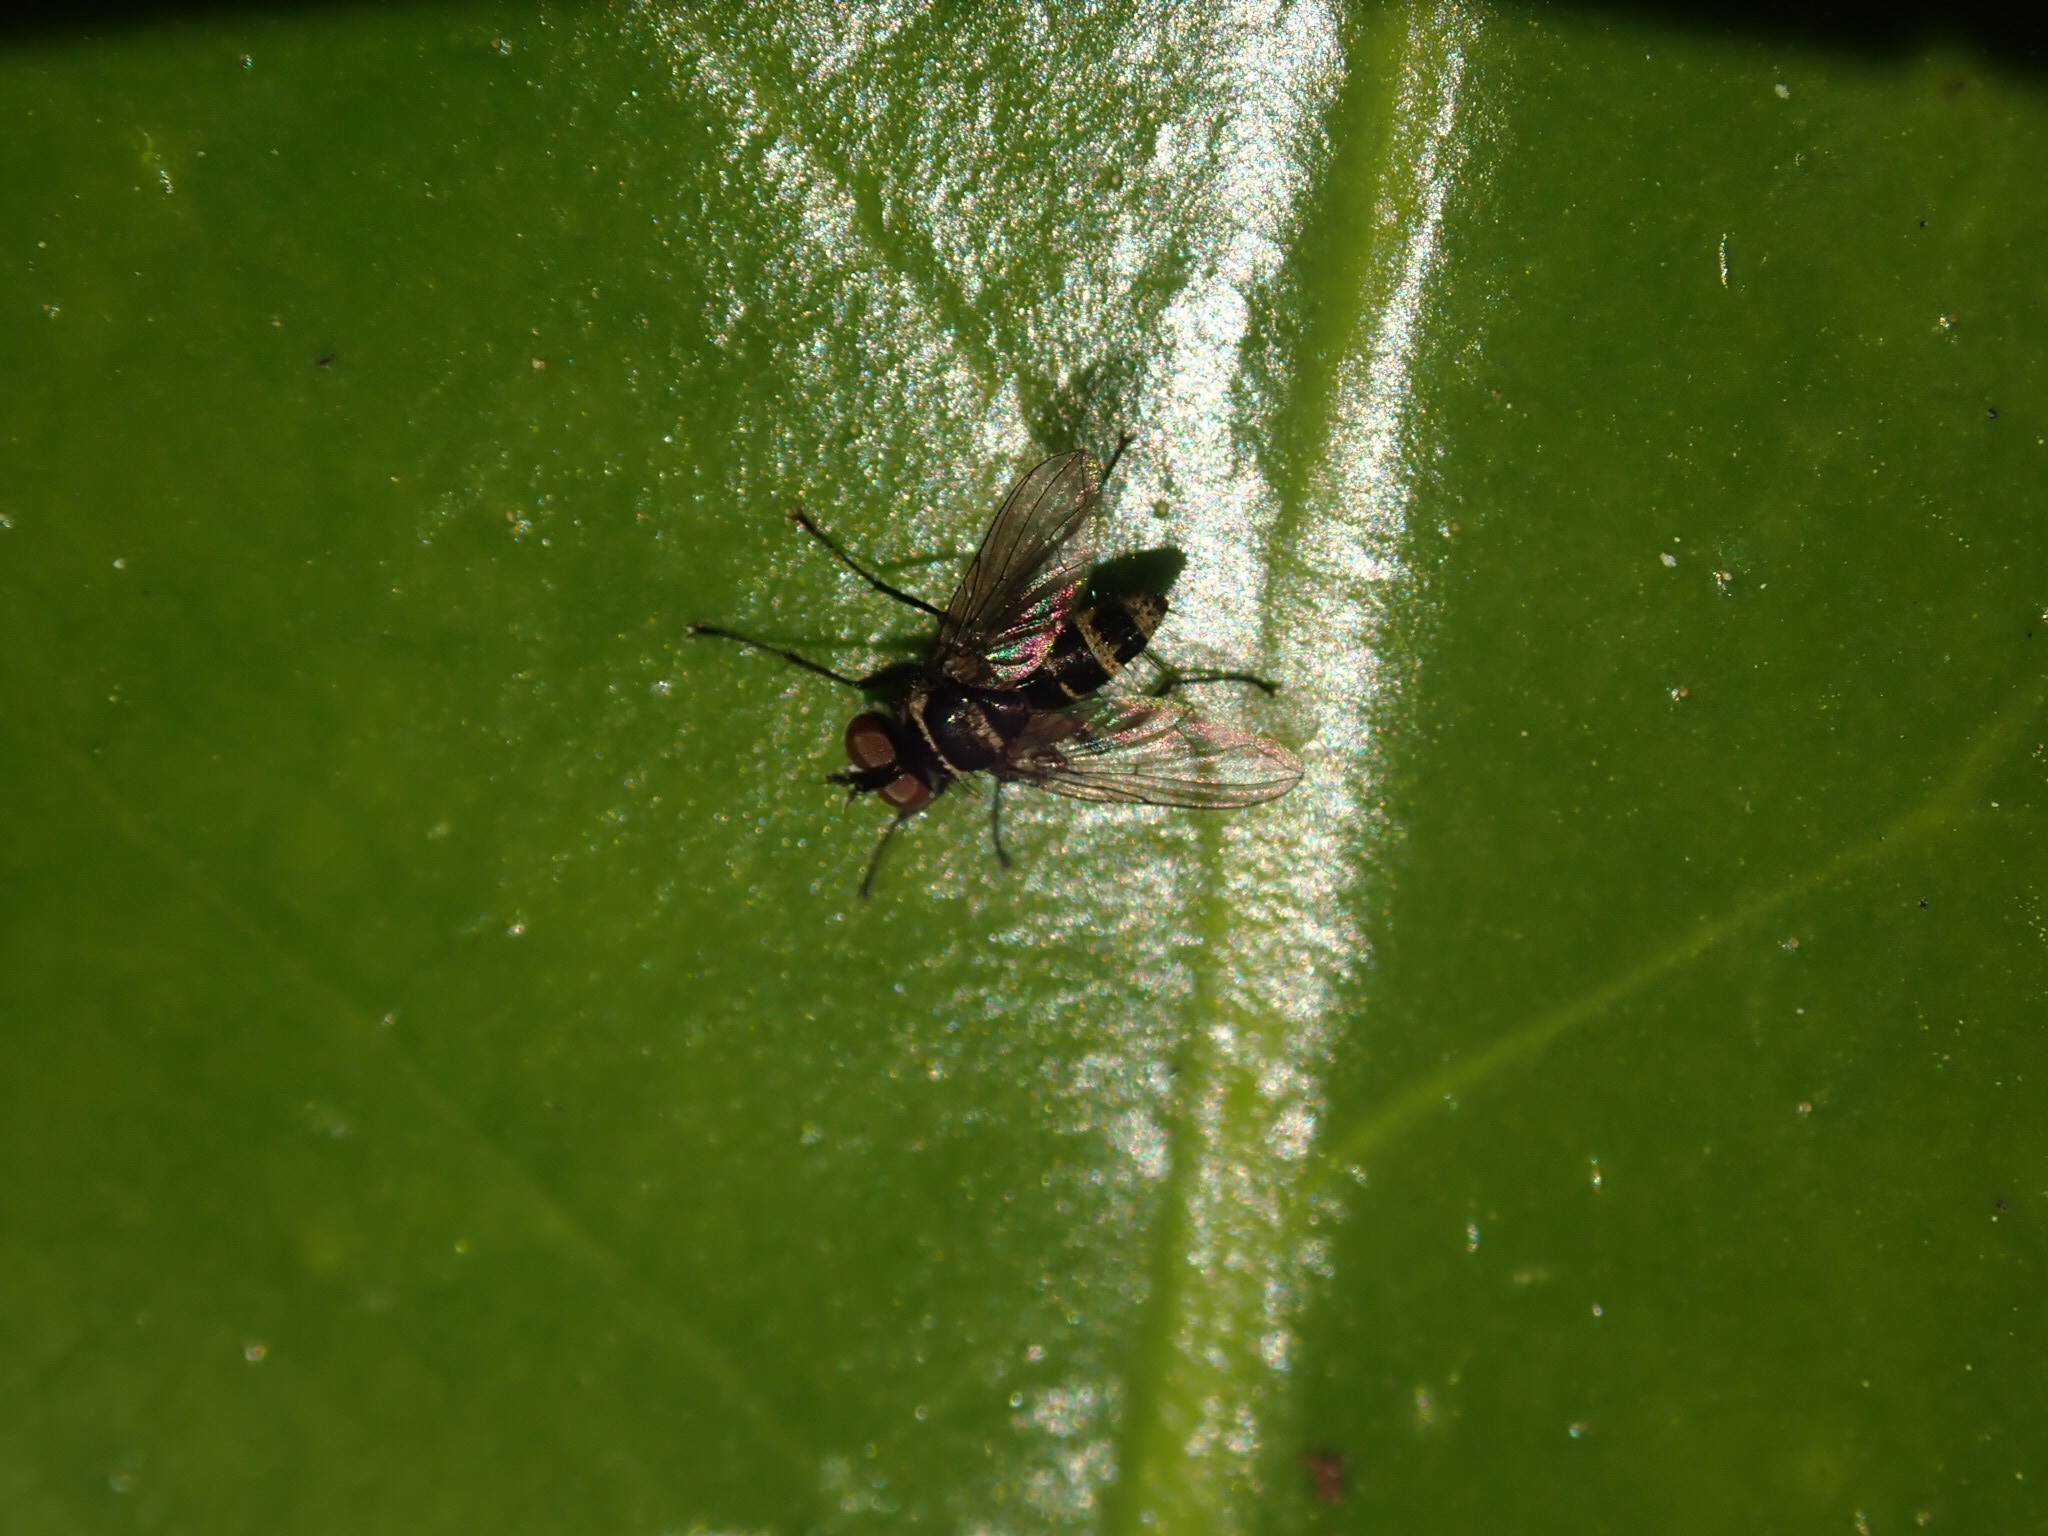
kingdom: Animalia
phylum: Arthropoda
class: Insecta
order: Diptera
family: Tachinidae
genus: Trigonospila
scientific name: Trigonospila brevifacies
